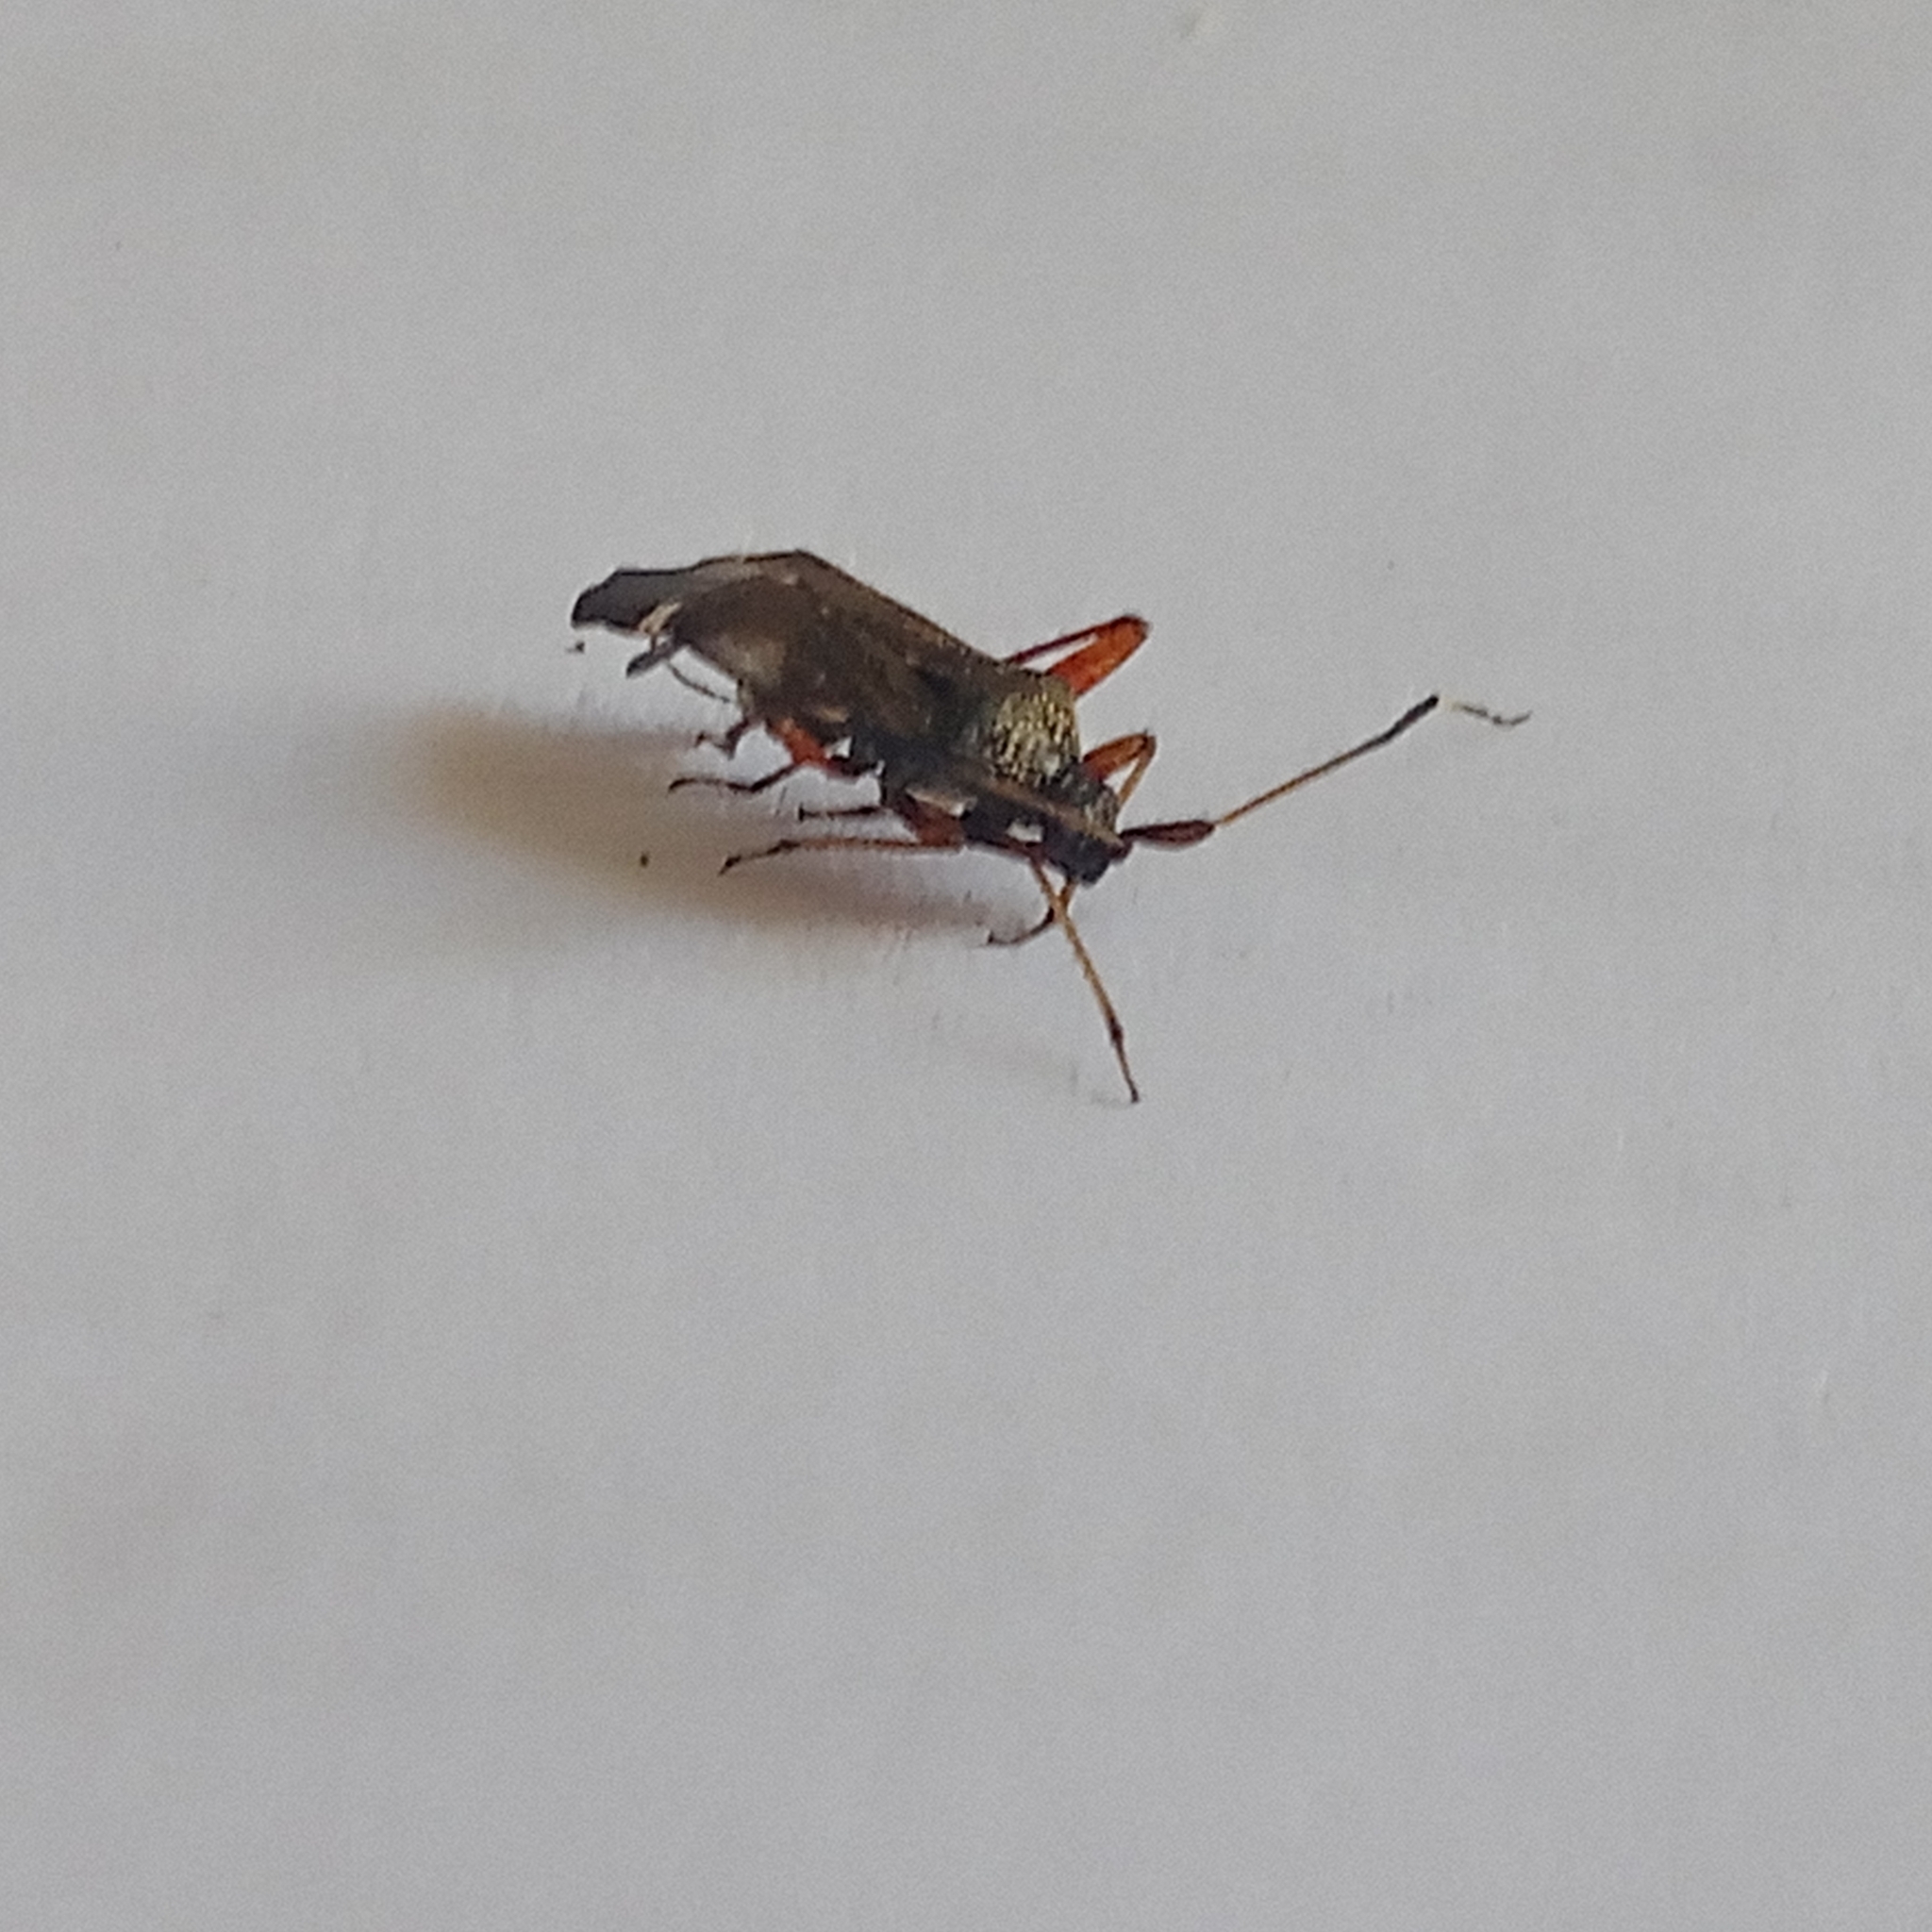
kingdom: Animalia
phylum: Arthropoda
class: Insecta
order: Hemiptera
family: Miridae
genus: Closterotomus
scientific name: Closterotomus biclavatus
